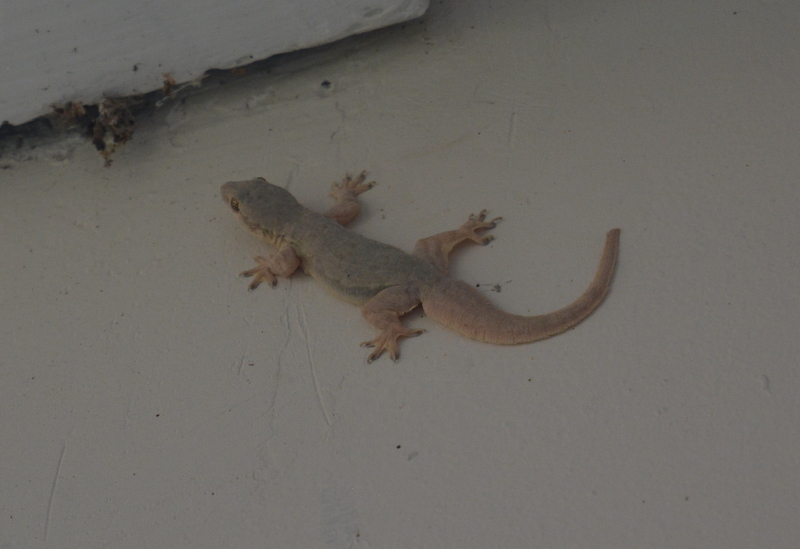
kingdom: Animalia
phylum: Chordata
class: Squamata
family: Gekkonidae
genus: Hemidactylus
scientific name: Hemidactylus platyurus
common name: Flat-tailed house gecko
